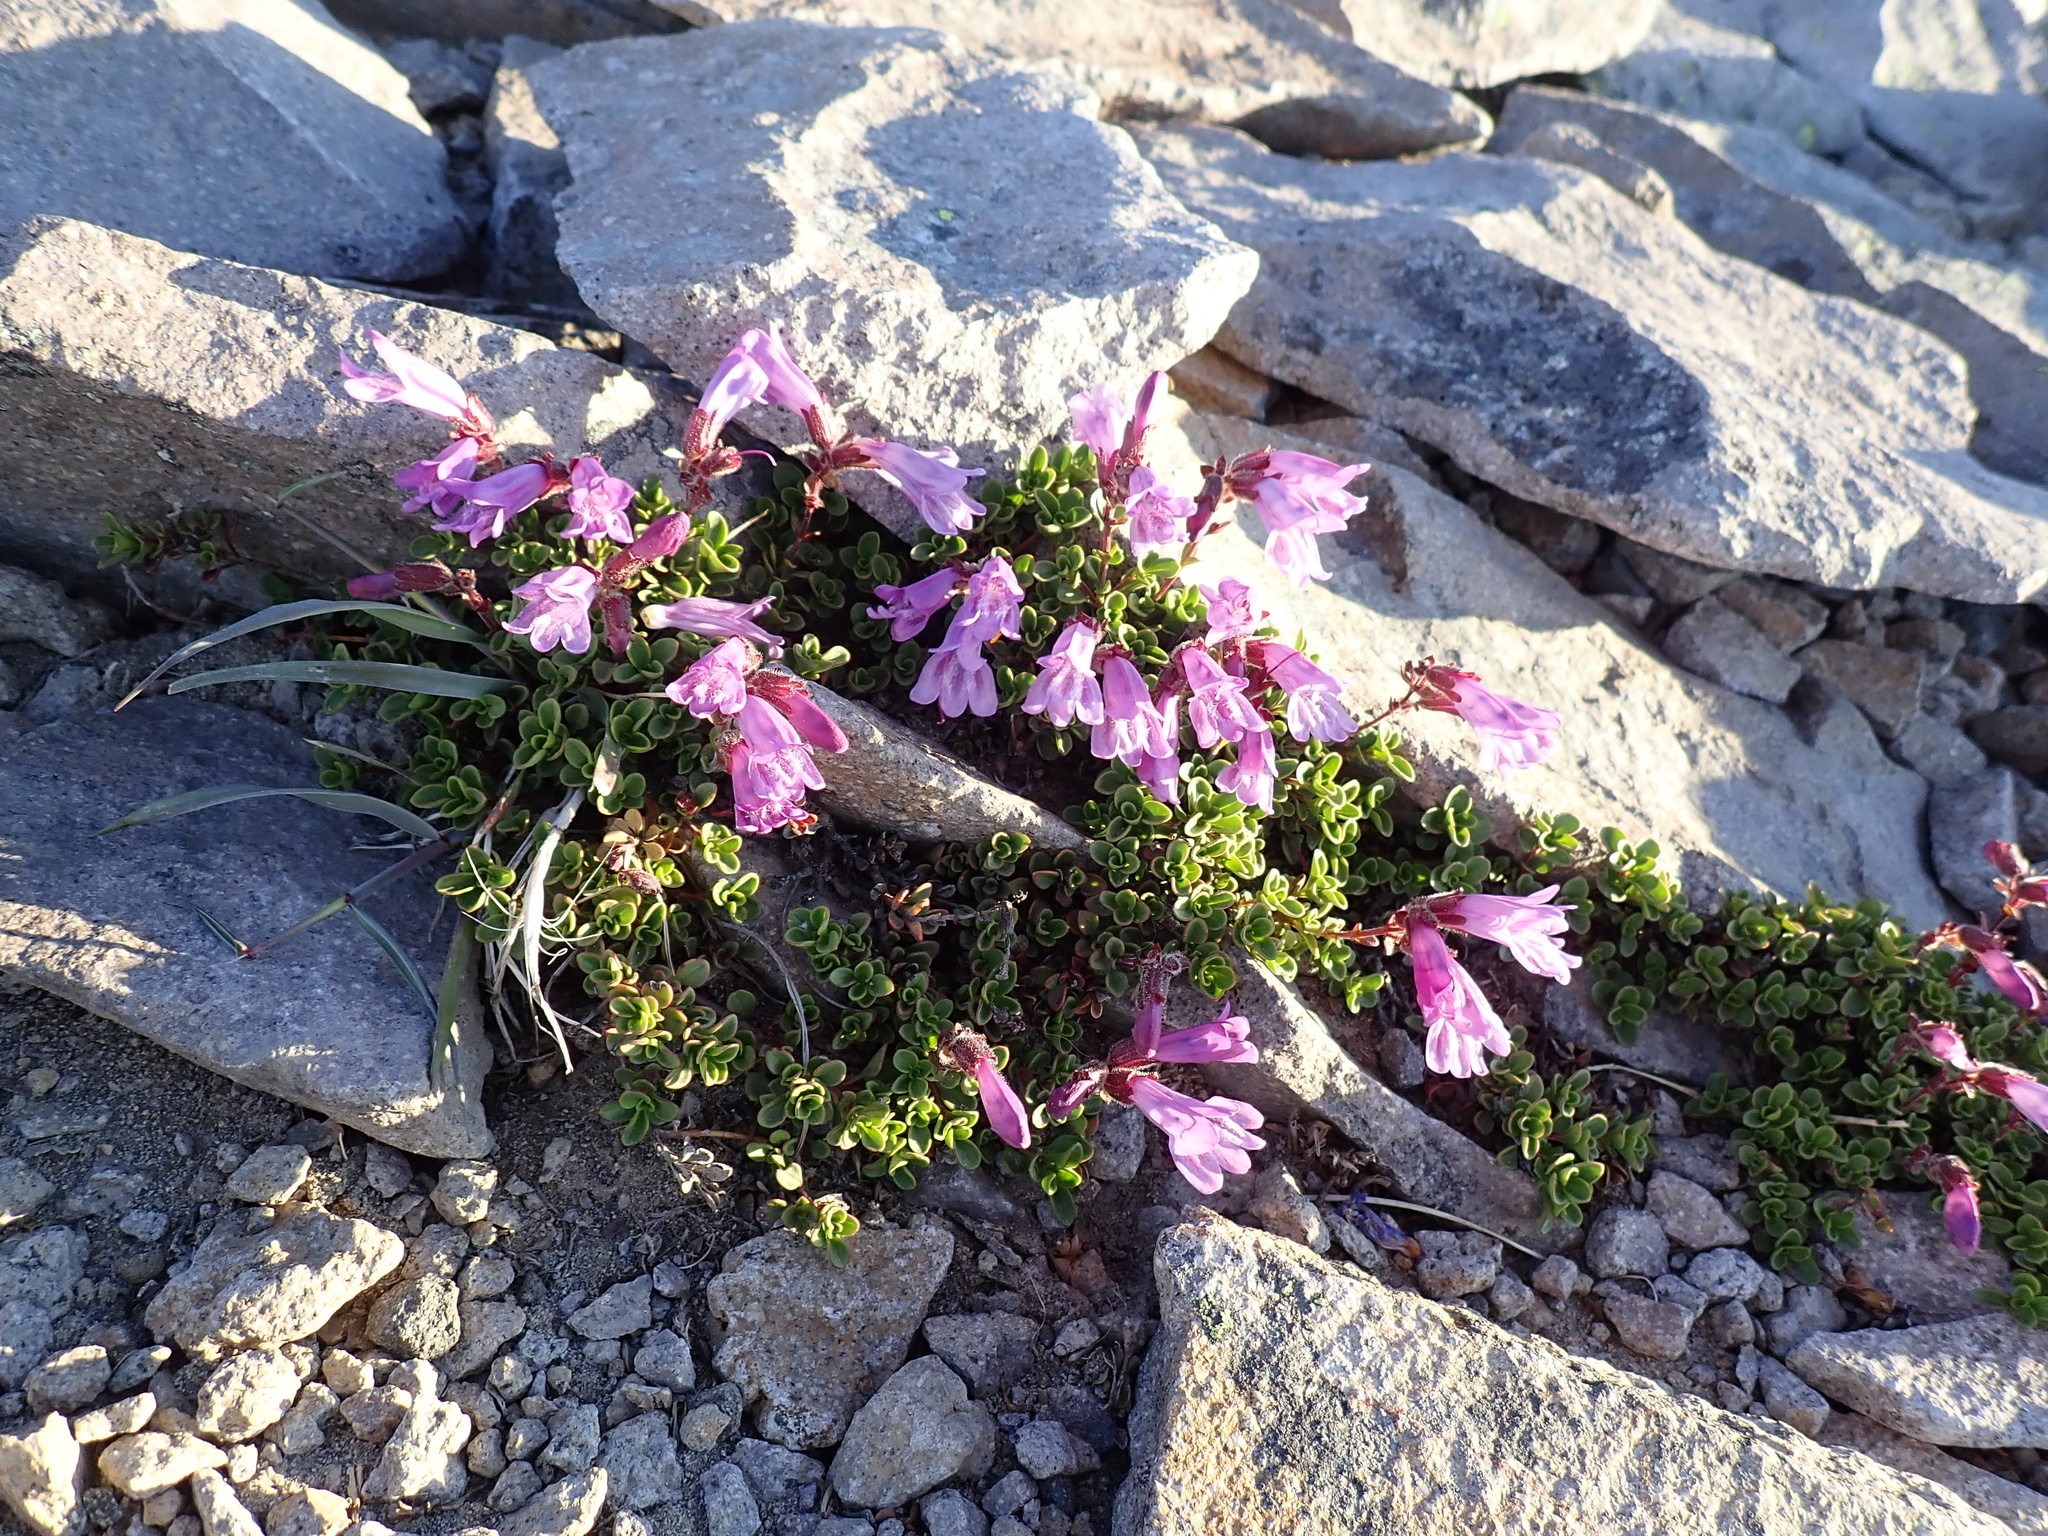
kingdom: Plantae
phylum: Tracheophyta
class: Magnoliopsida
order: Lamiales
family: Plantaginaceae
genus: Penstemon
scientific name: Penstemon davidsonii
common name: Davidson's penstemon
